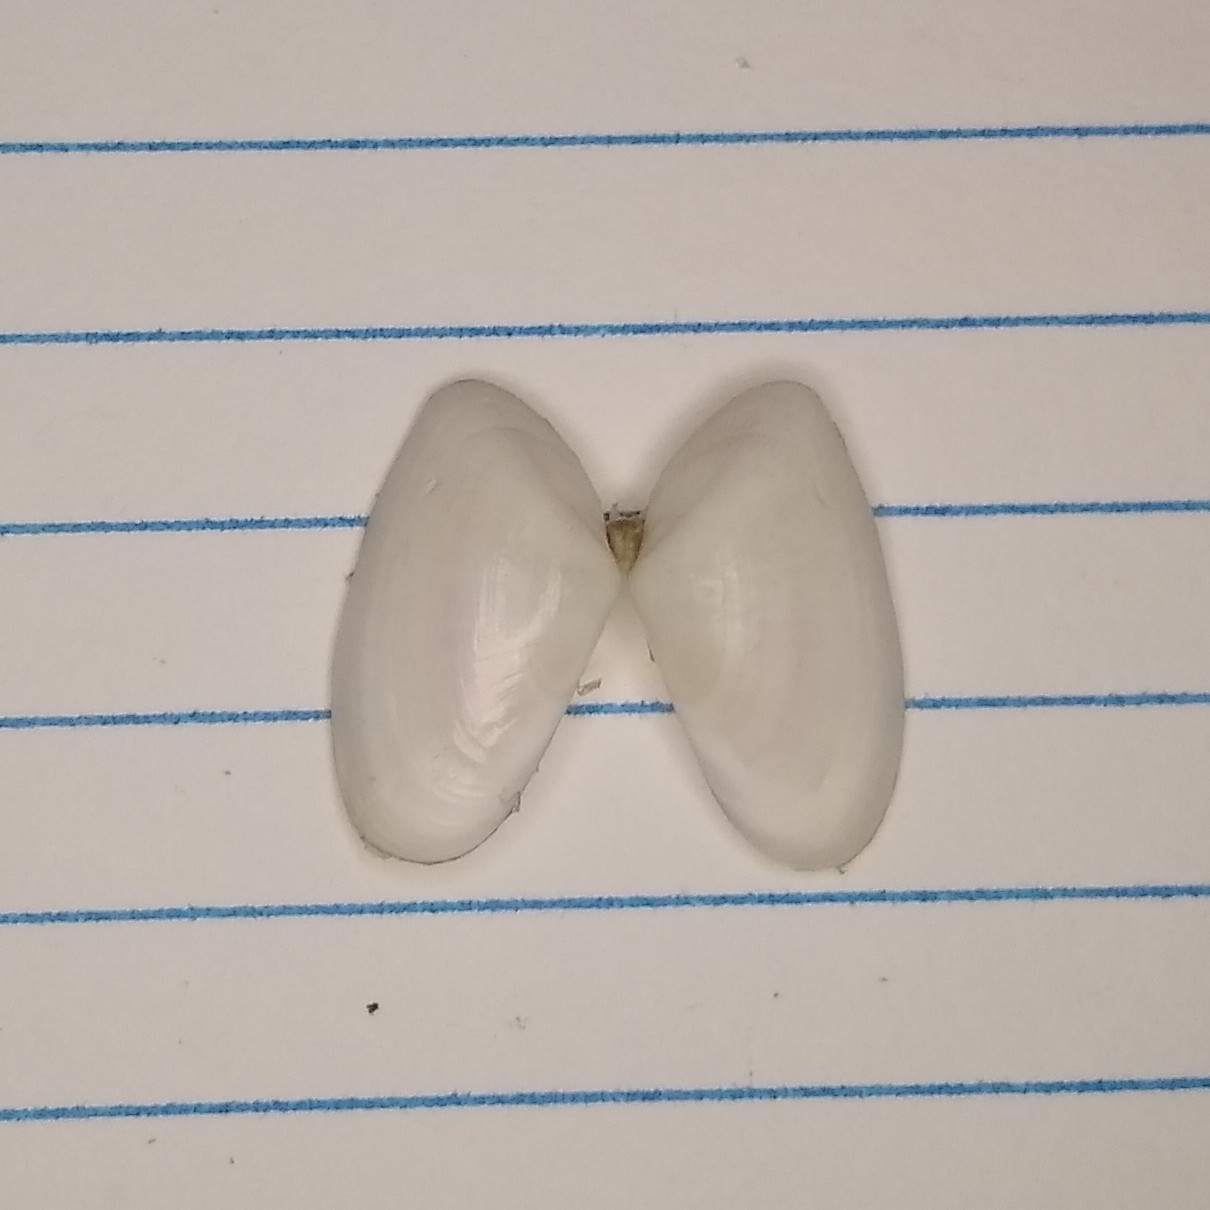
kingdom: Animalia
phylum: Mollusca
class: Bivalvia
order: Cardiida
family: Donacidae
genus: Donax
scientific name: Donax variabilis
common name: Butterfly shell
